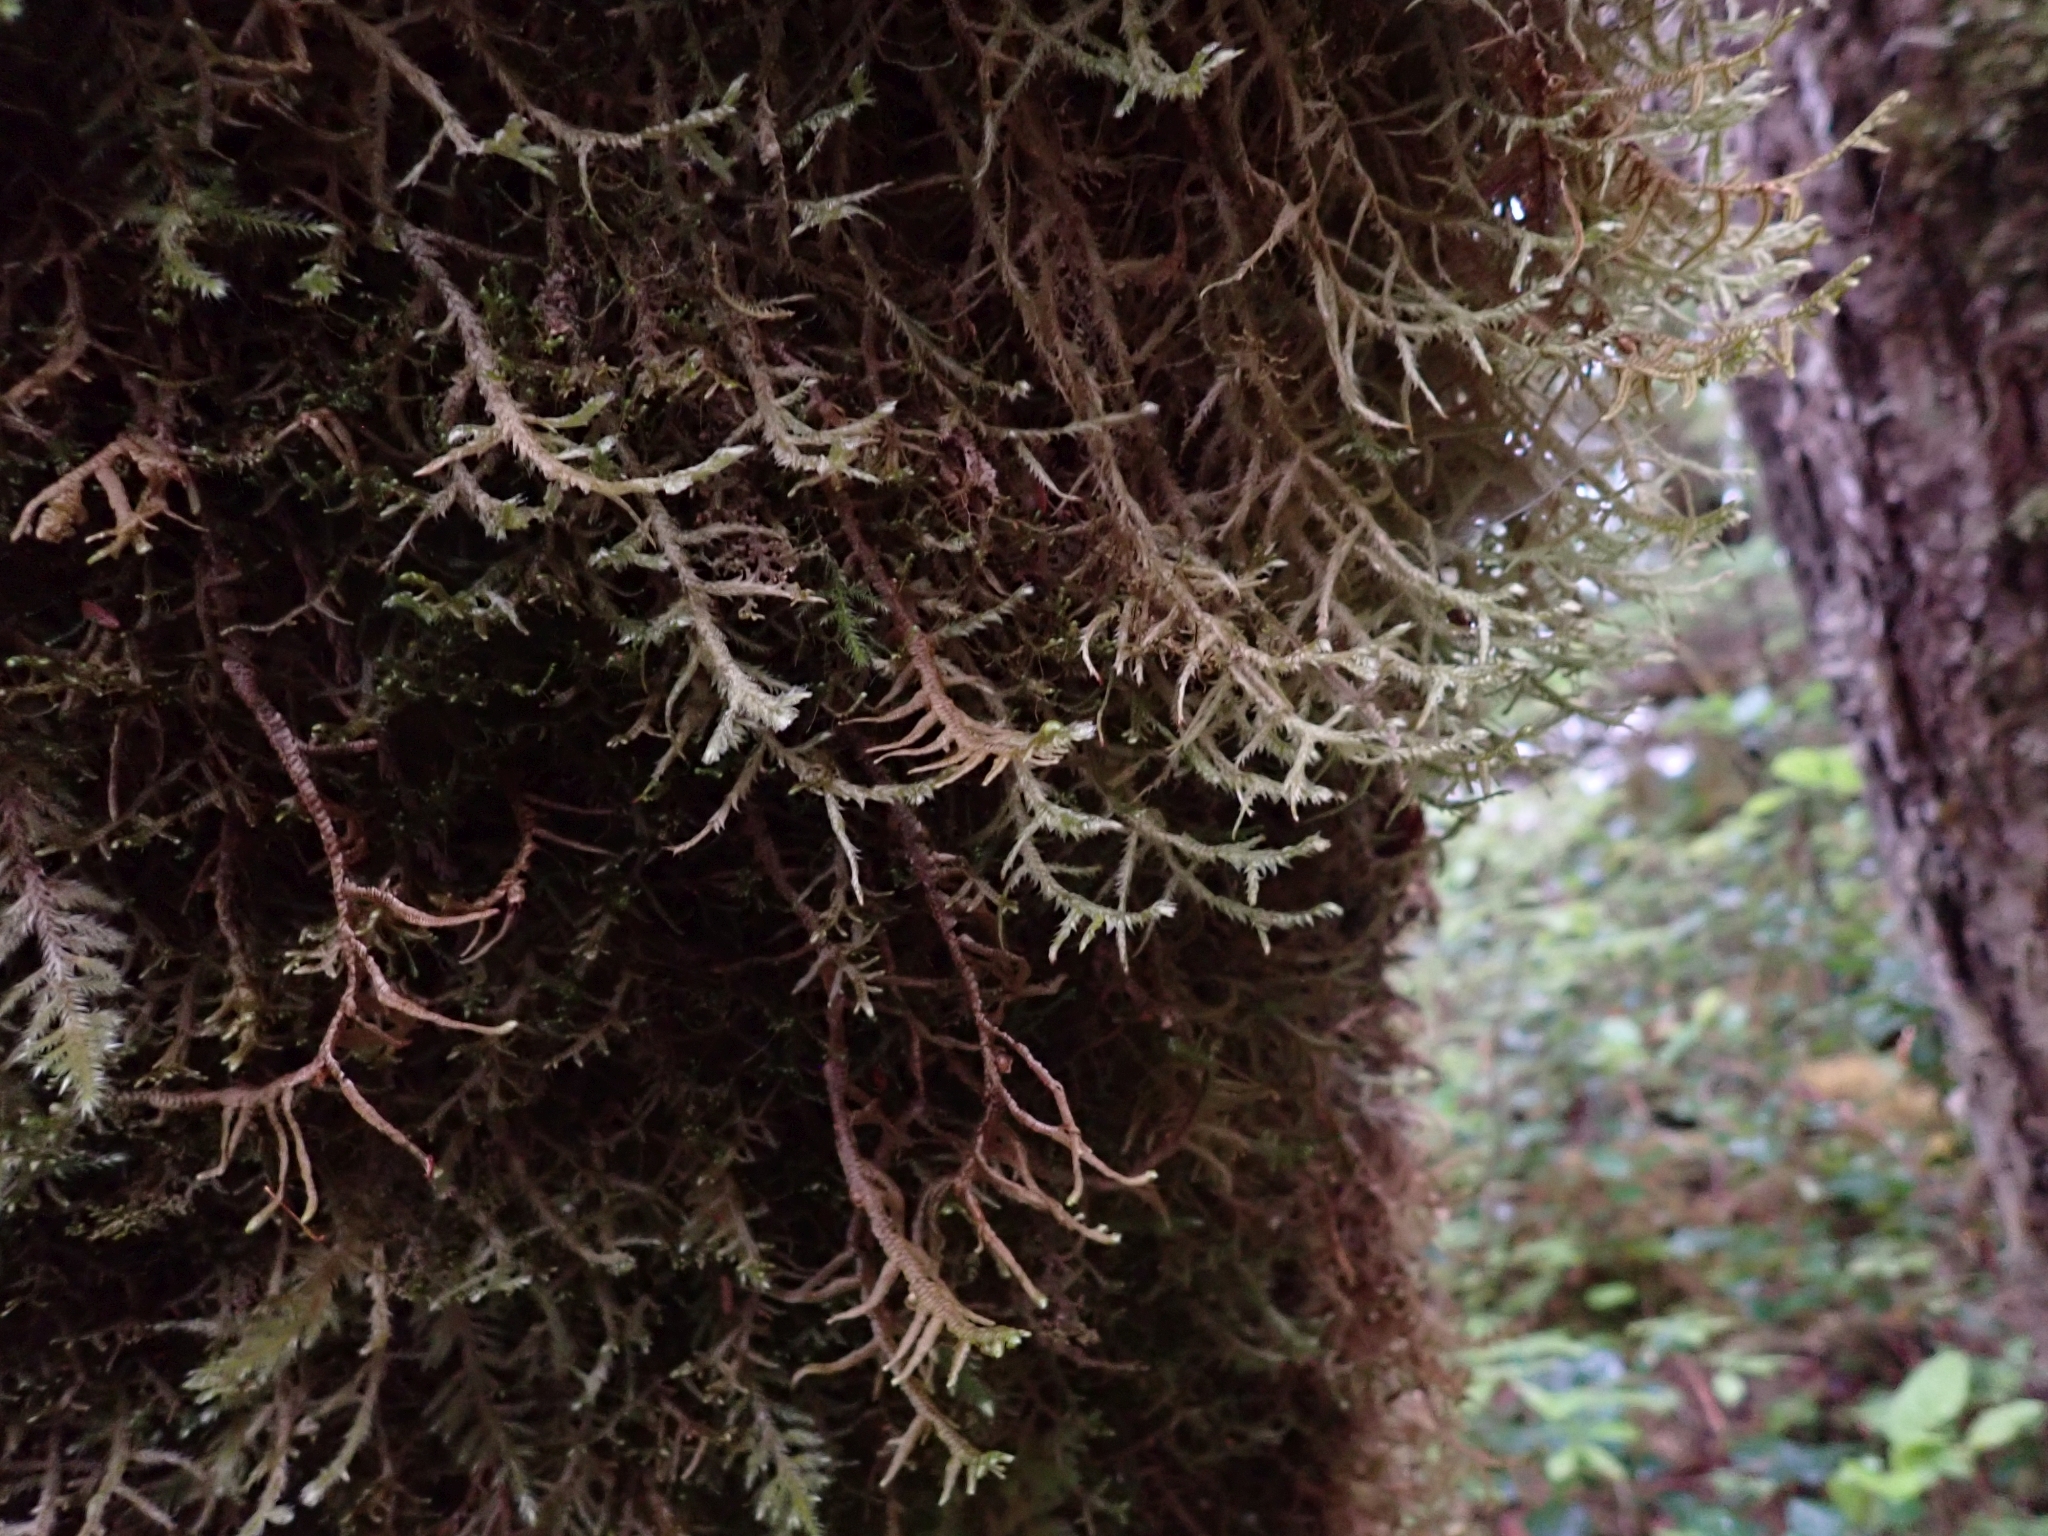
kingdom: Plantae
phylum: Bryophyta
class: Bryopsida
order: Hypnales
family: Neckeraceae
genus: Neckera
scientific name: Neckera douglasii
